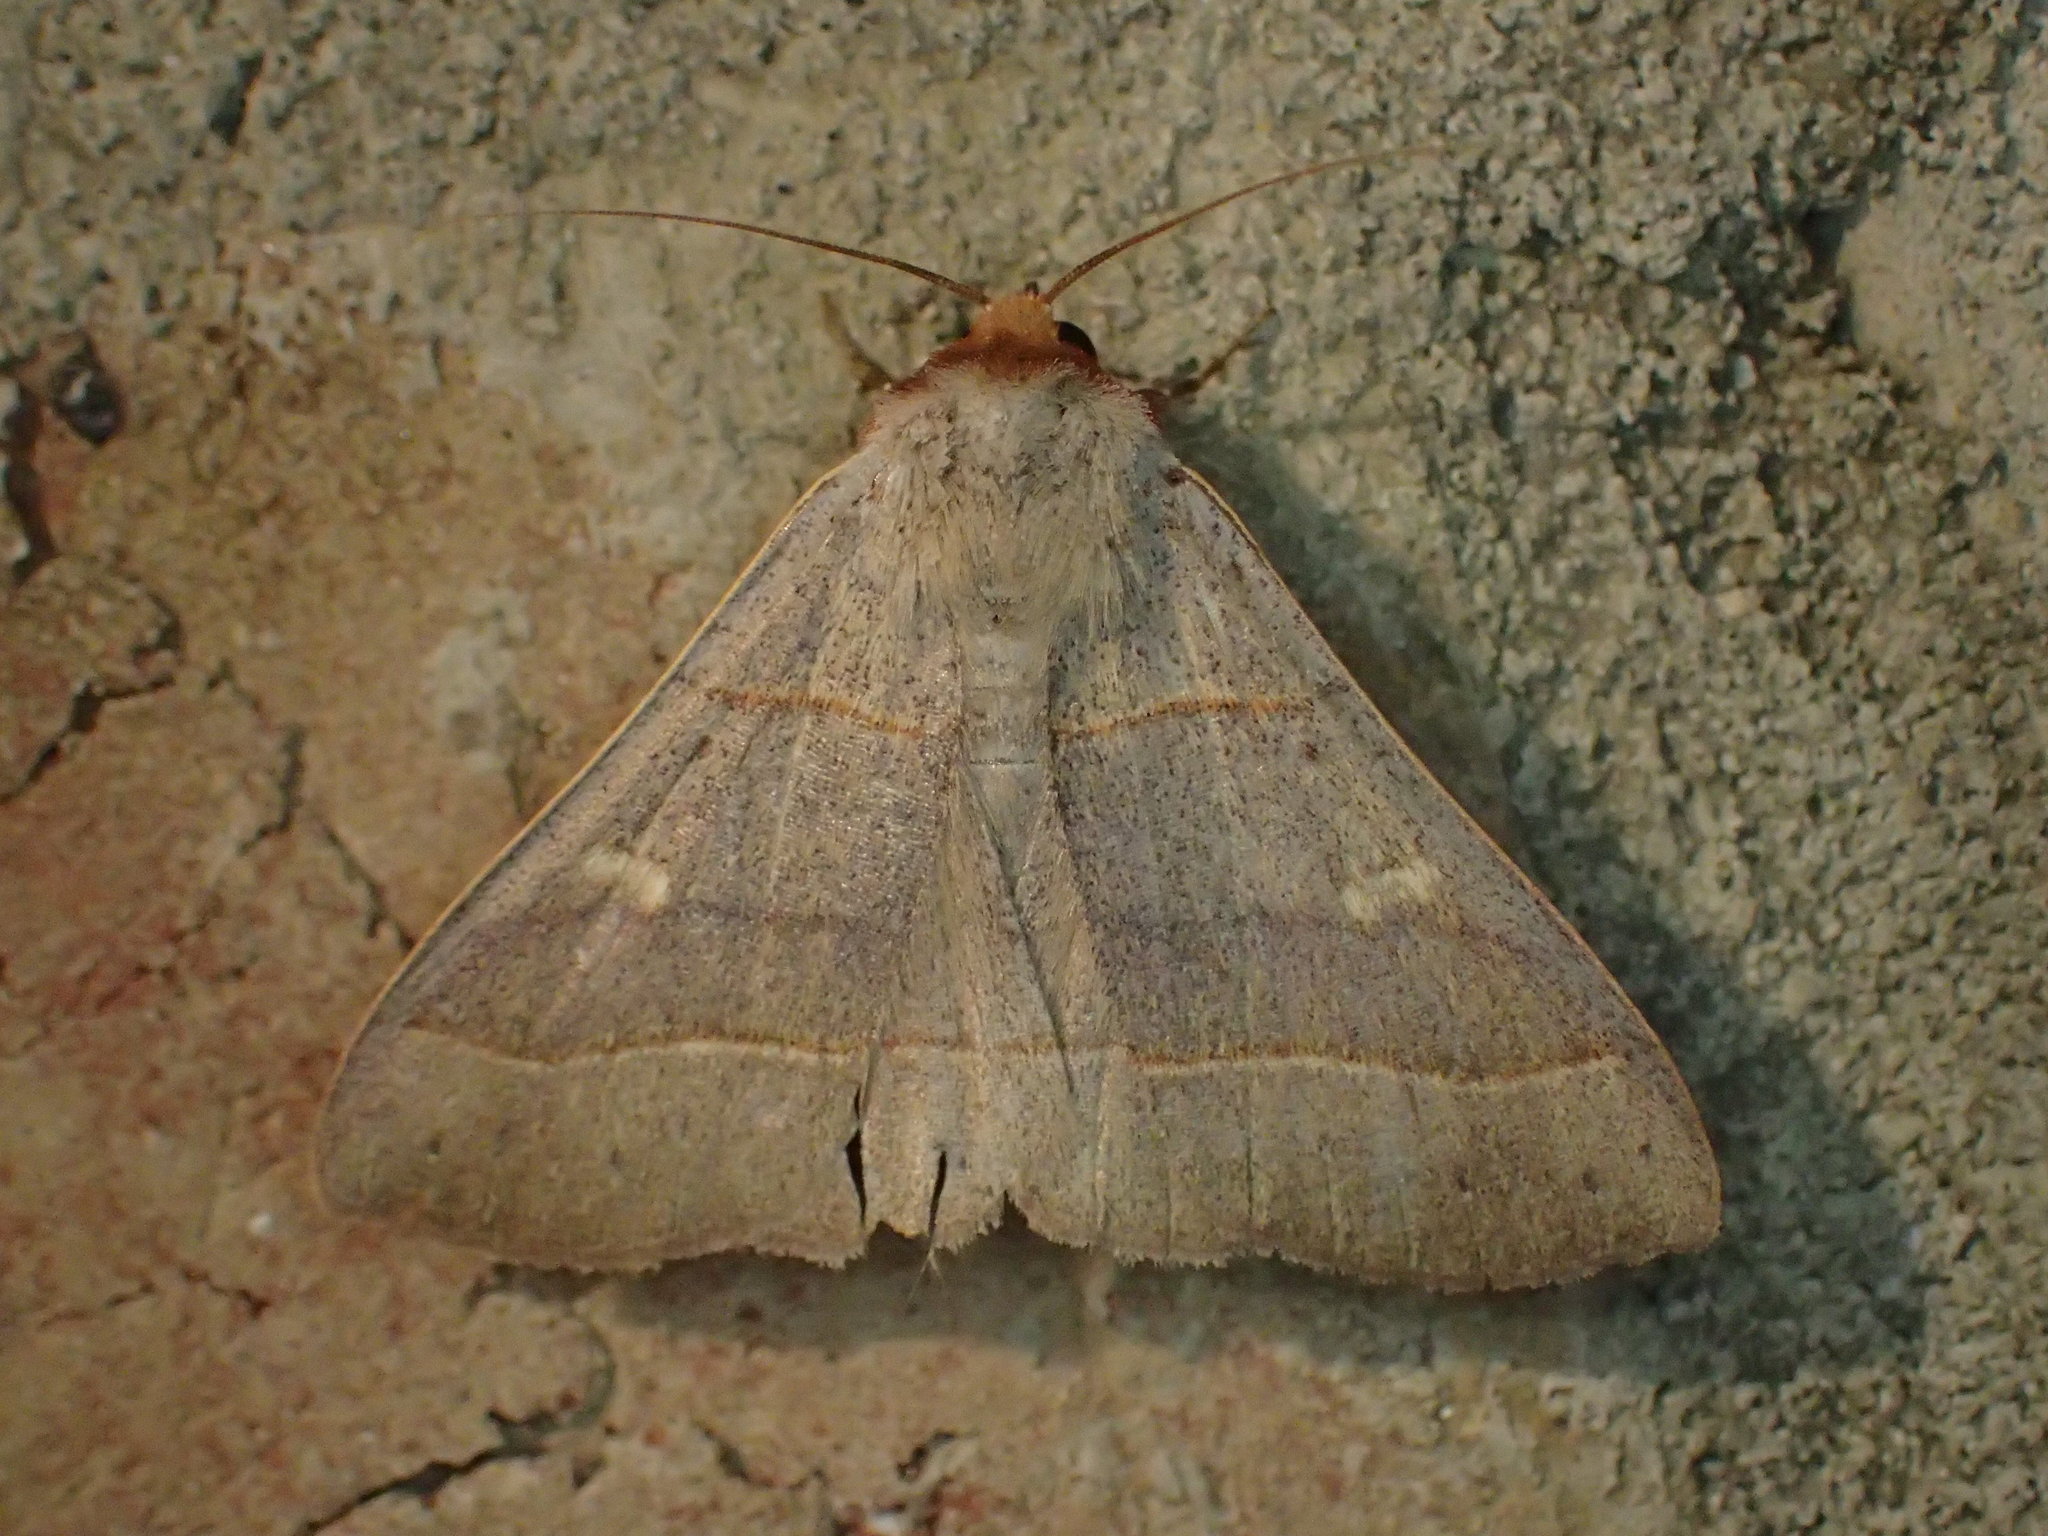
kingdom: Animalia
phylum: Arthropoda
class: Insecta
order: Lepidoptera
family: Erebidae
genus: Panopoda
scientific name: Panopoda rufimargo
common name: Red-lined panopoda moth
